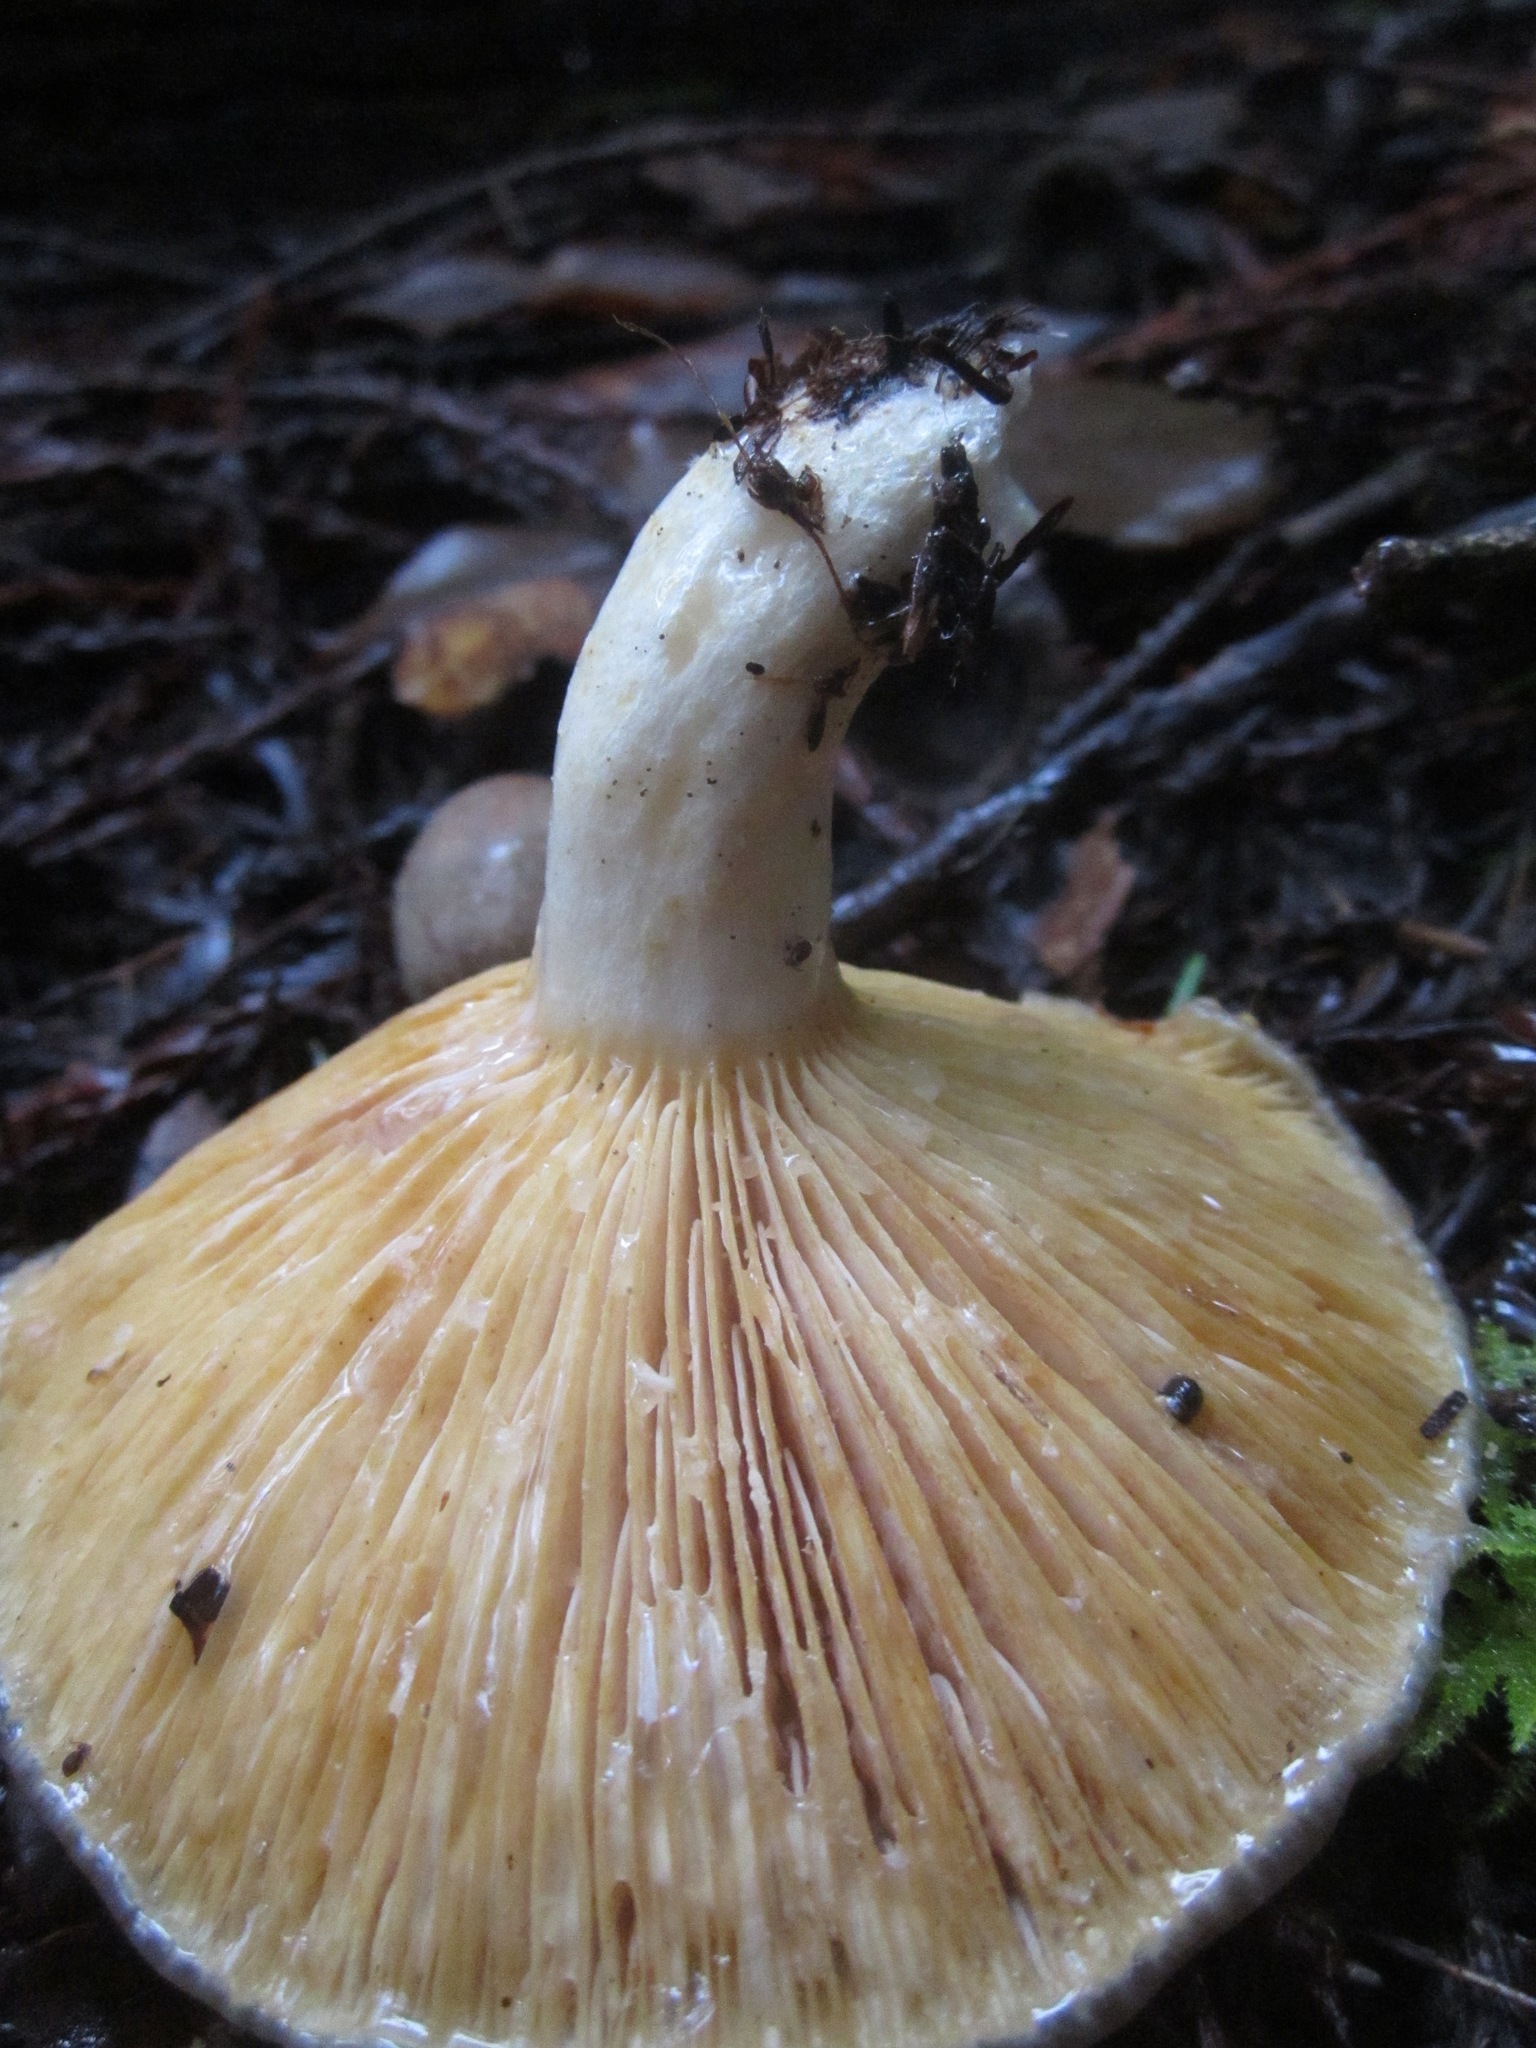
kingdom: Fungi
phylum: Basidiomycota
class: Agaricomycetes
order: Russulales
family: Russulaceae
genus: Lactarius
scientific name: Lactarius californiensis
